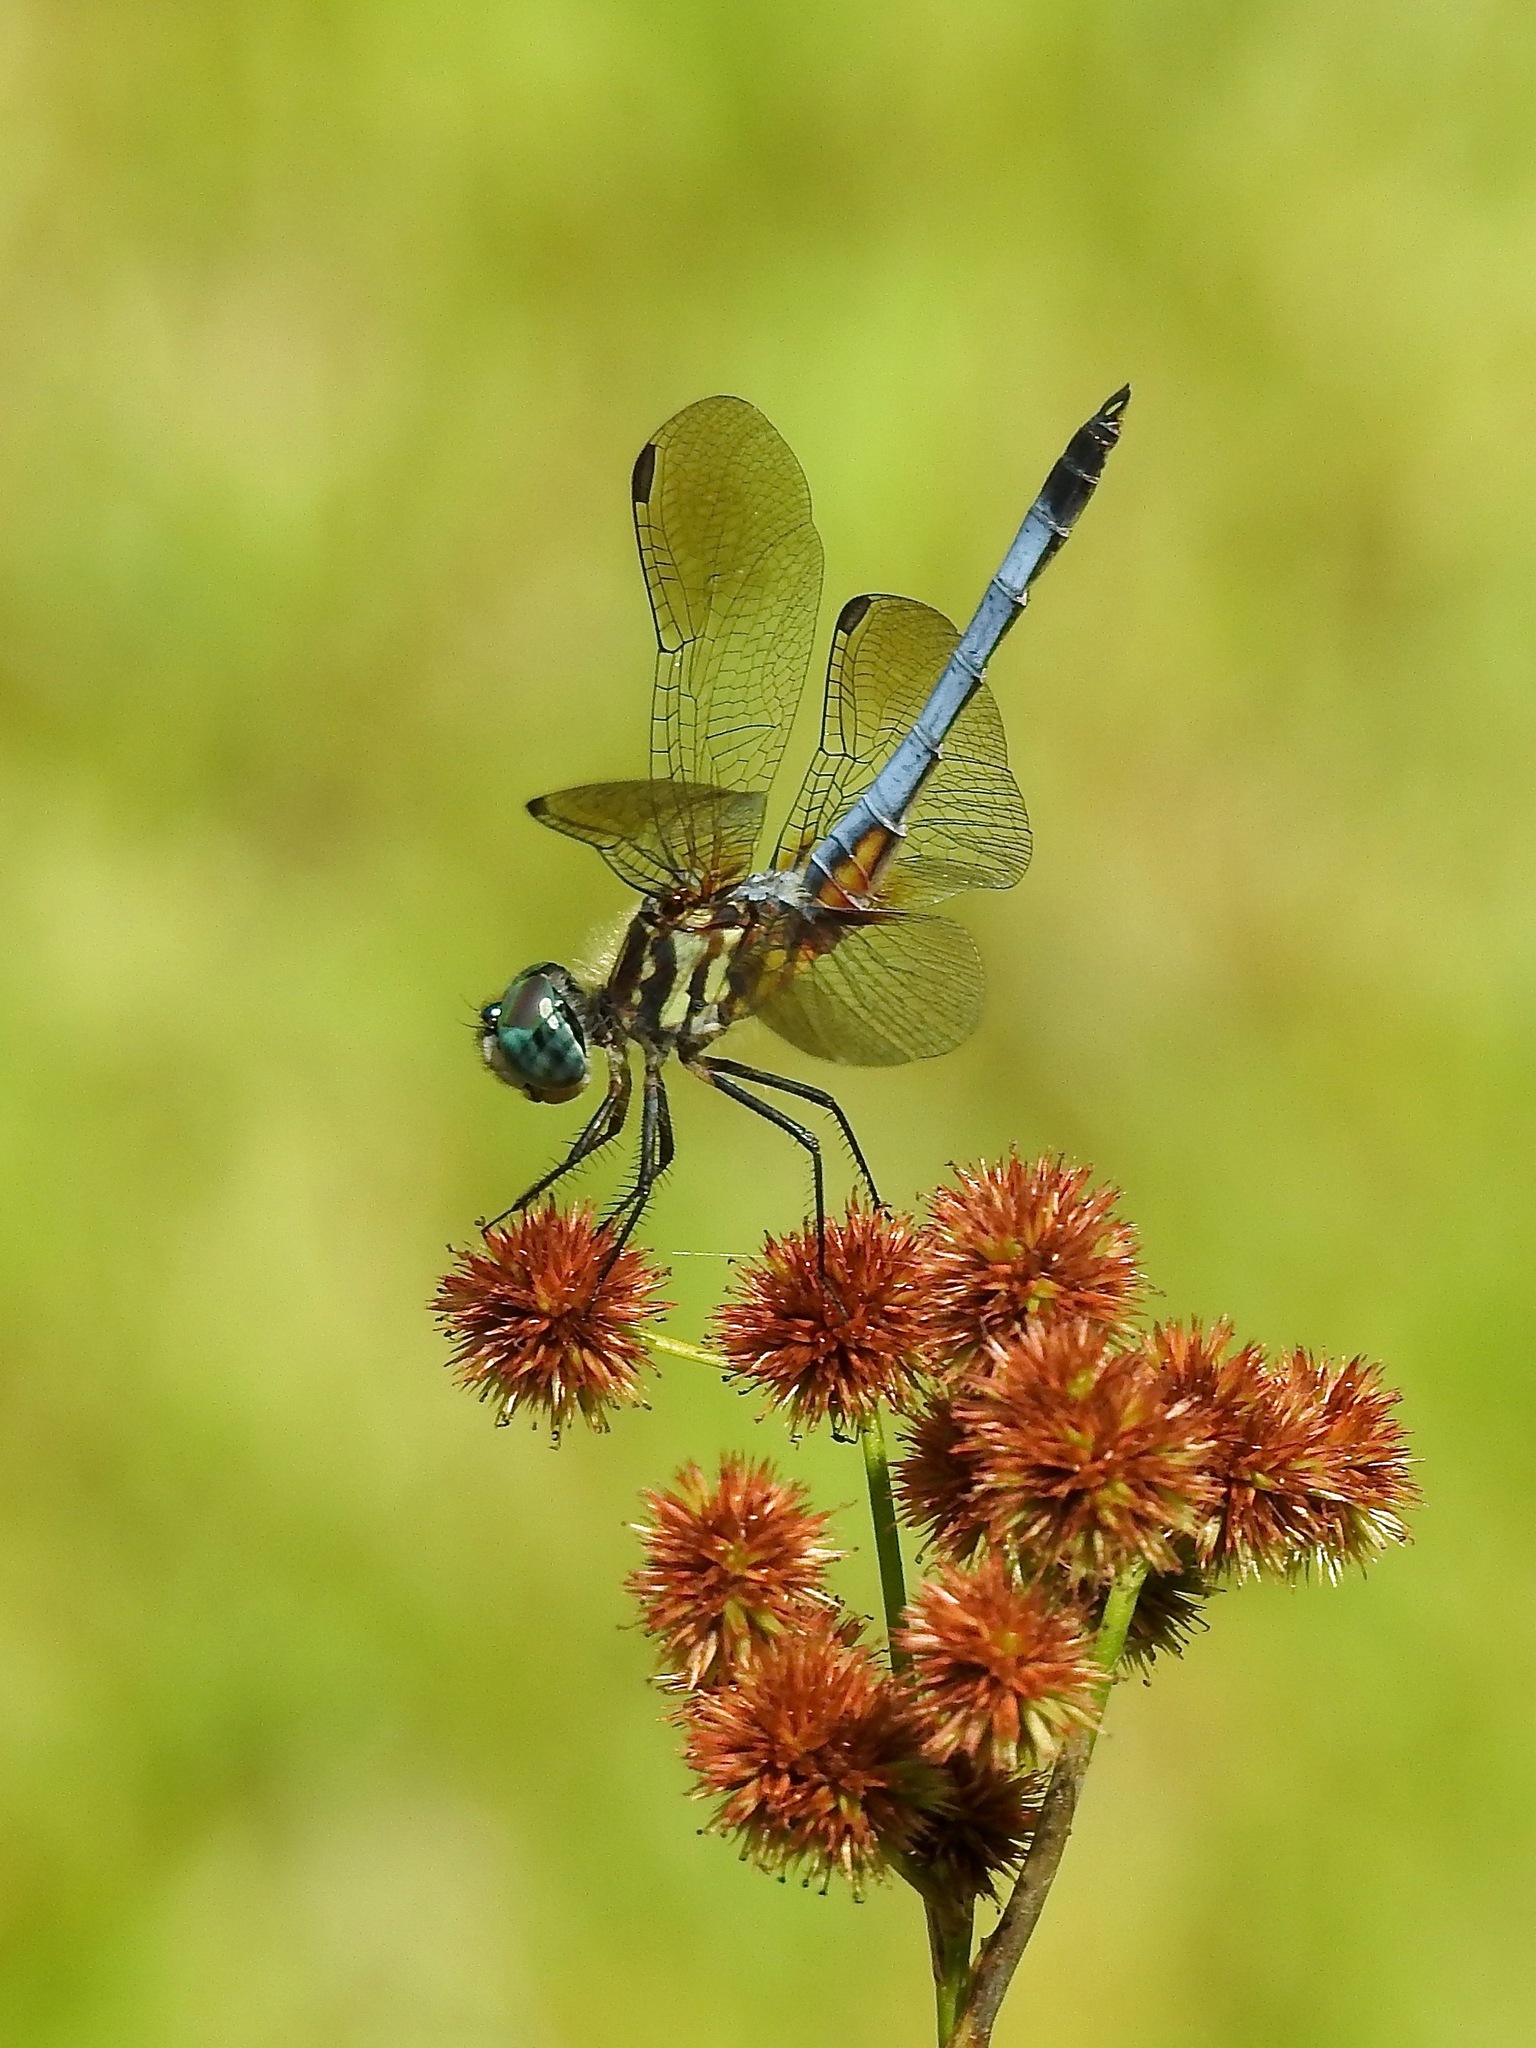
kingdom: Animalia
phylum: Arthropoda
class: Insecta
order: Odonata
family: Libellulidae
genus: Pachydiplax
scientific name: Pachydiplax longipennis
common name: Blue dasher
